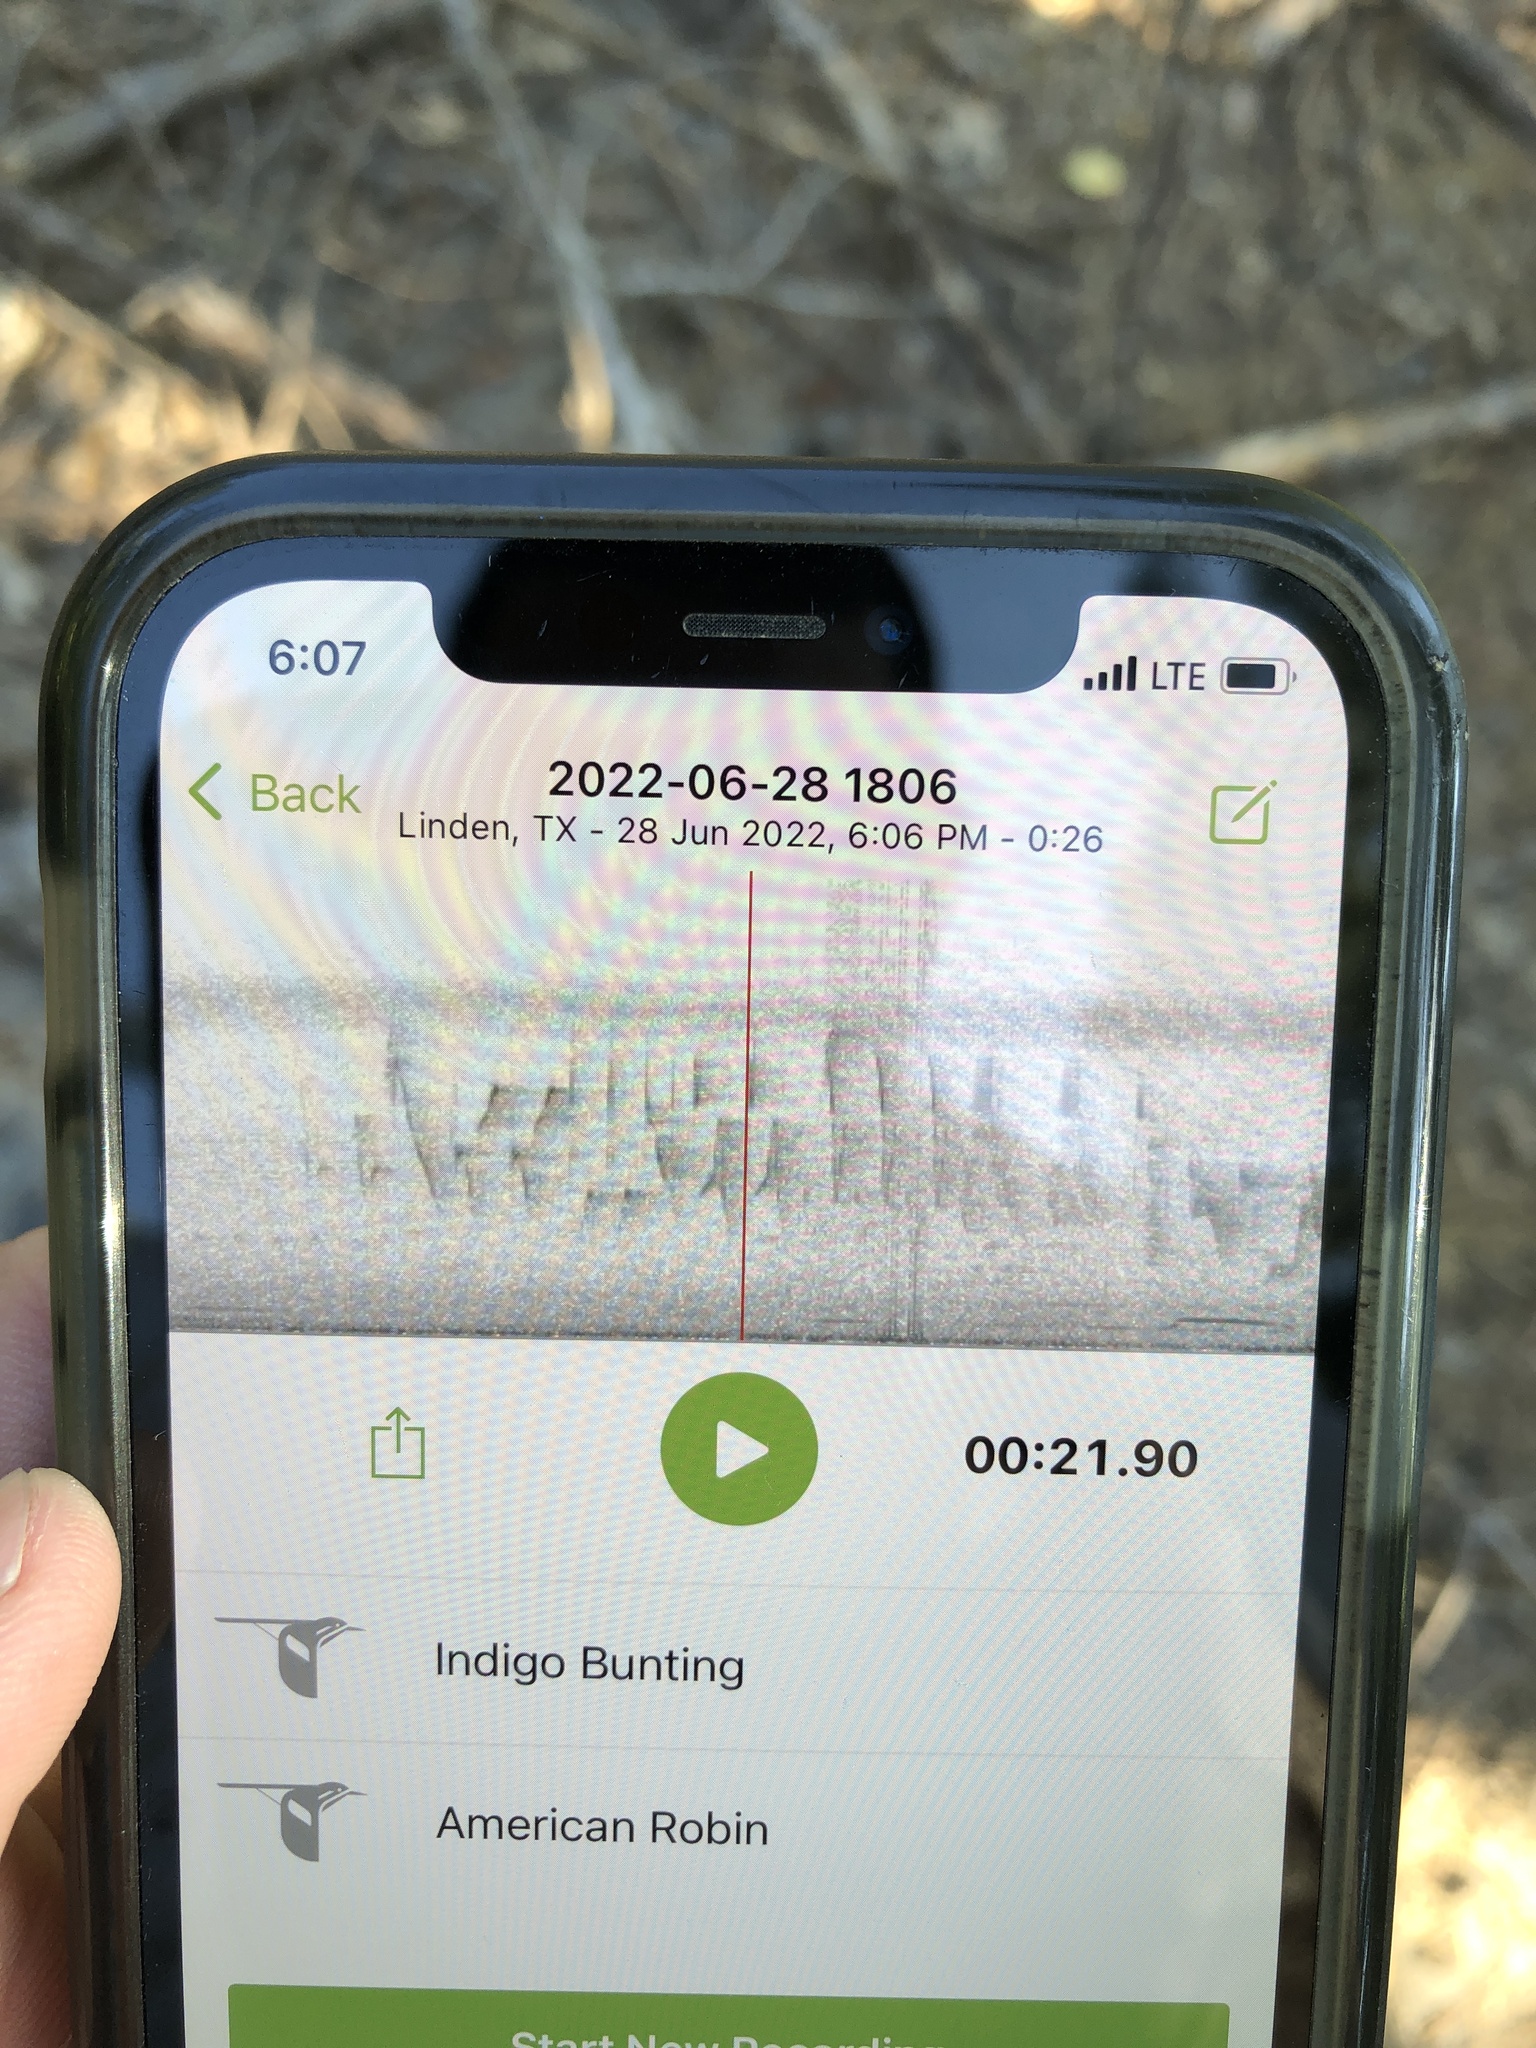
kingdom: Animalia
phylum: Chordata
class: Aves
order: Passeriformes
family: Cardinalidae
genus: Passerina
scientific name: Passerina cyanea
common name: Indigo bunting
